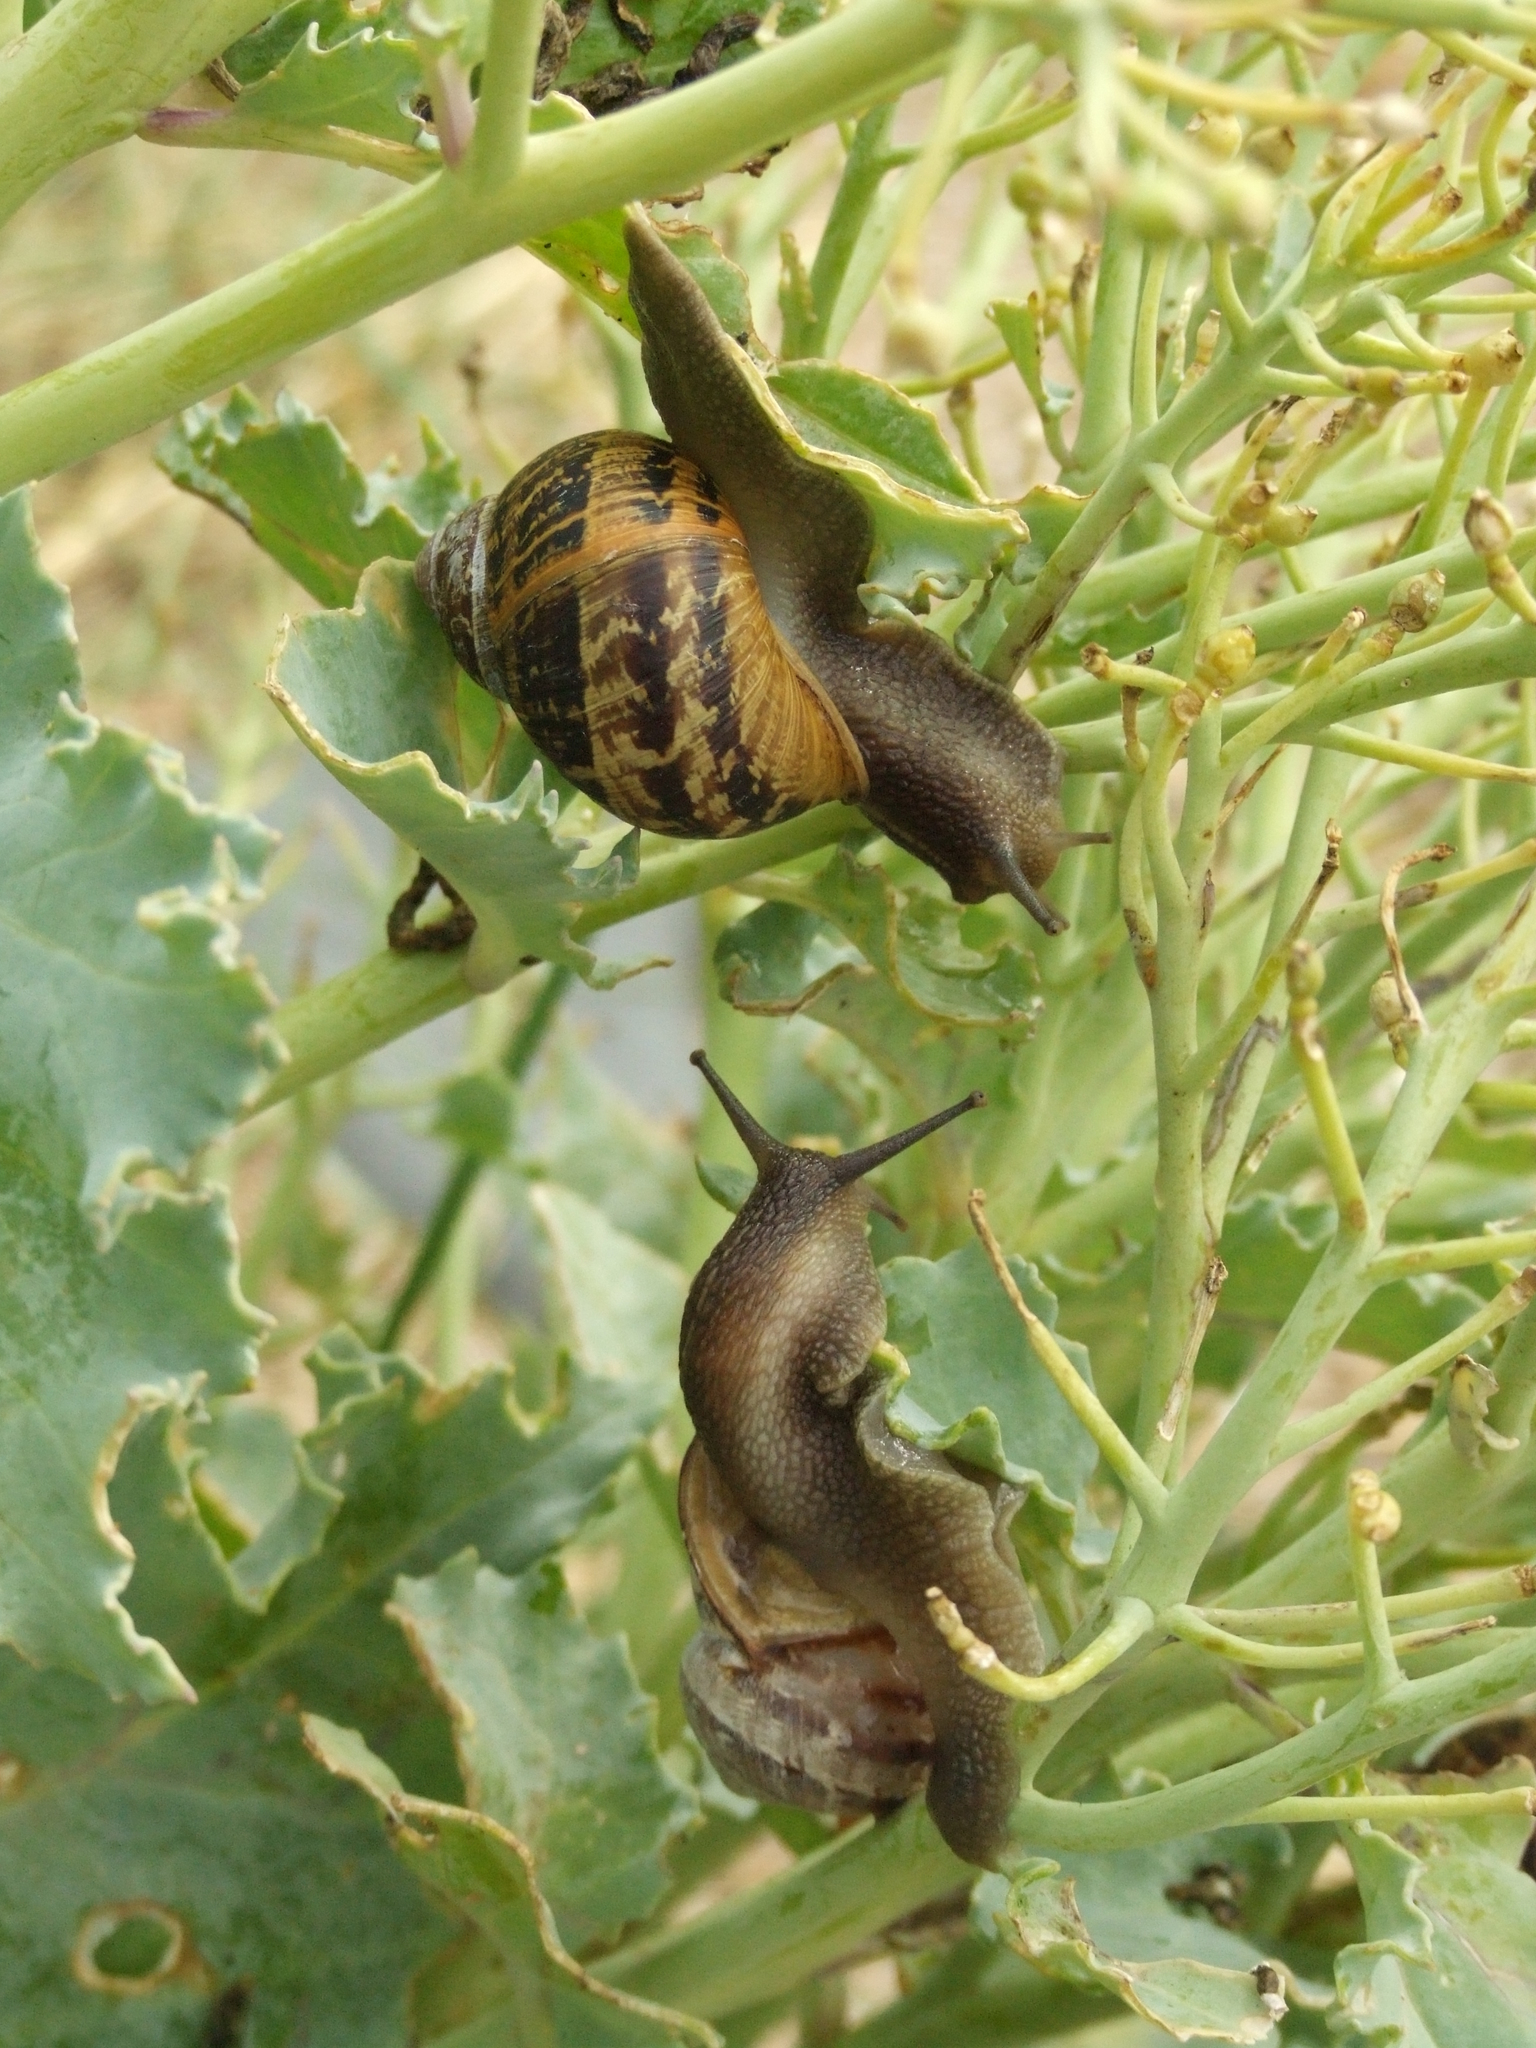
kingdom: Animalia
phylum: Mollusca
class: Gastropoda
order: Stylommatophora
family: Helicidae
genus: Cornu
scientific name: Cornu aspersum
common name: Brown garden snail
